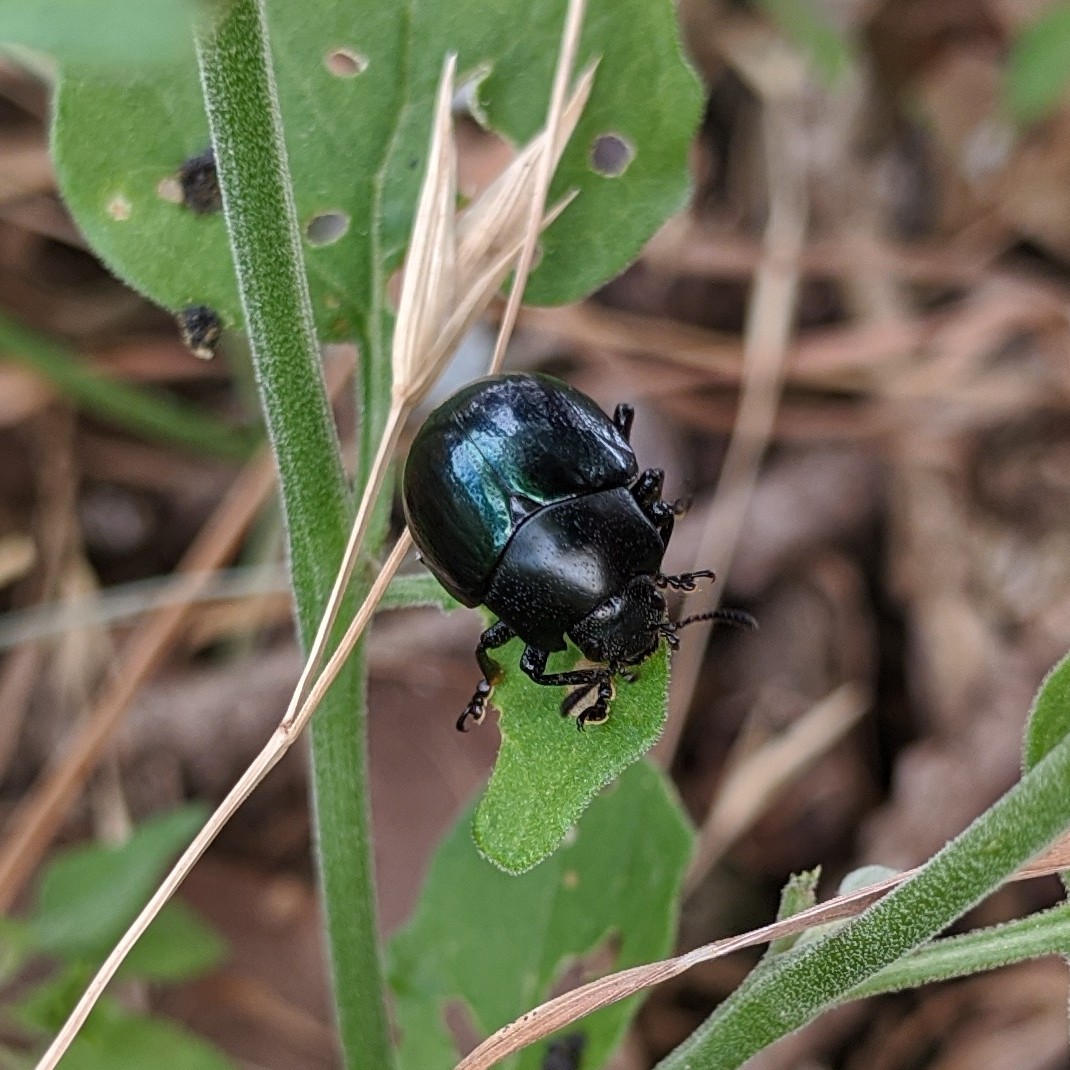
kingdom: Animalia
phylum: Arthropoda
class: Insecta
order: Coleoptera
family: Chrysomelidae
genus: Leptinotarsa
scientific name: Leptinotarsa haldemani
